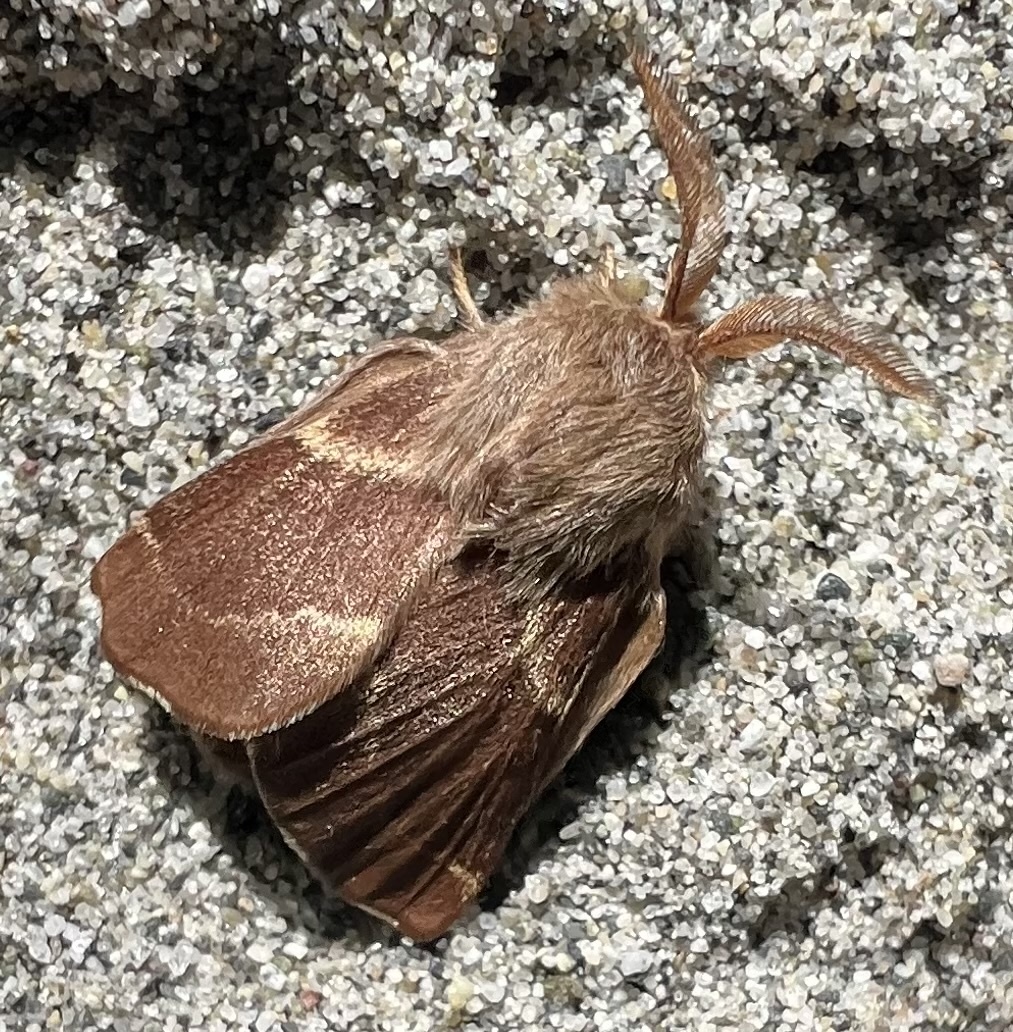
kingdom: Animalia
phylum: Arthropoda
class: Insecta
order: Lepidoptera
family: Lasiocampidae
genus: Malacosoma
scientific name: Malacosoma californica
